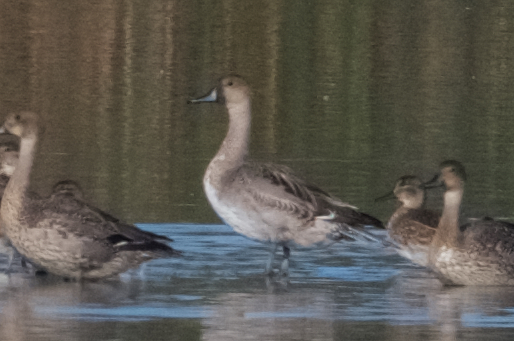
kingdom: Animalia
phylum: Chordata
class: Aves
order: Anseriformes
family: Anatidae
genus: Anas
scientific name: Anas acuta
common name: Northern pintail
